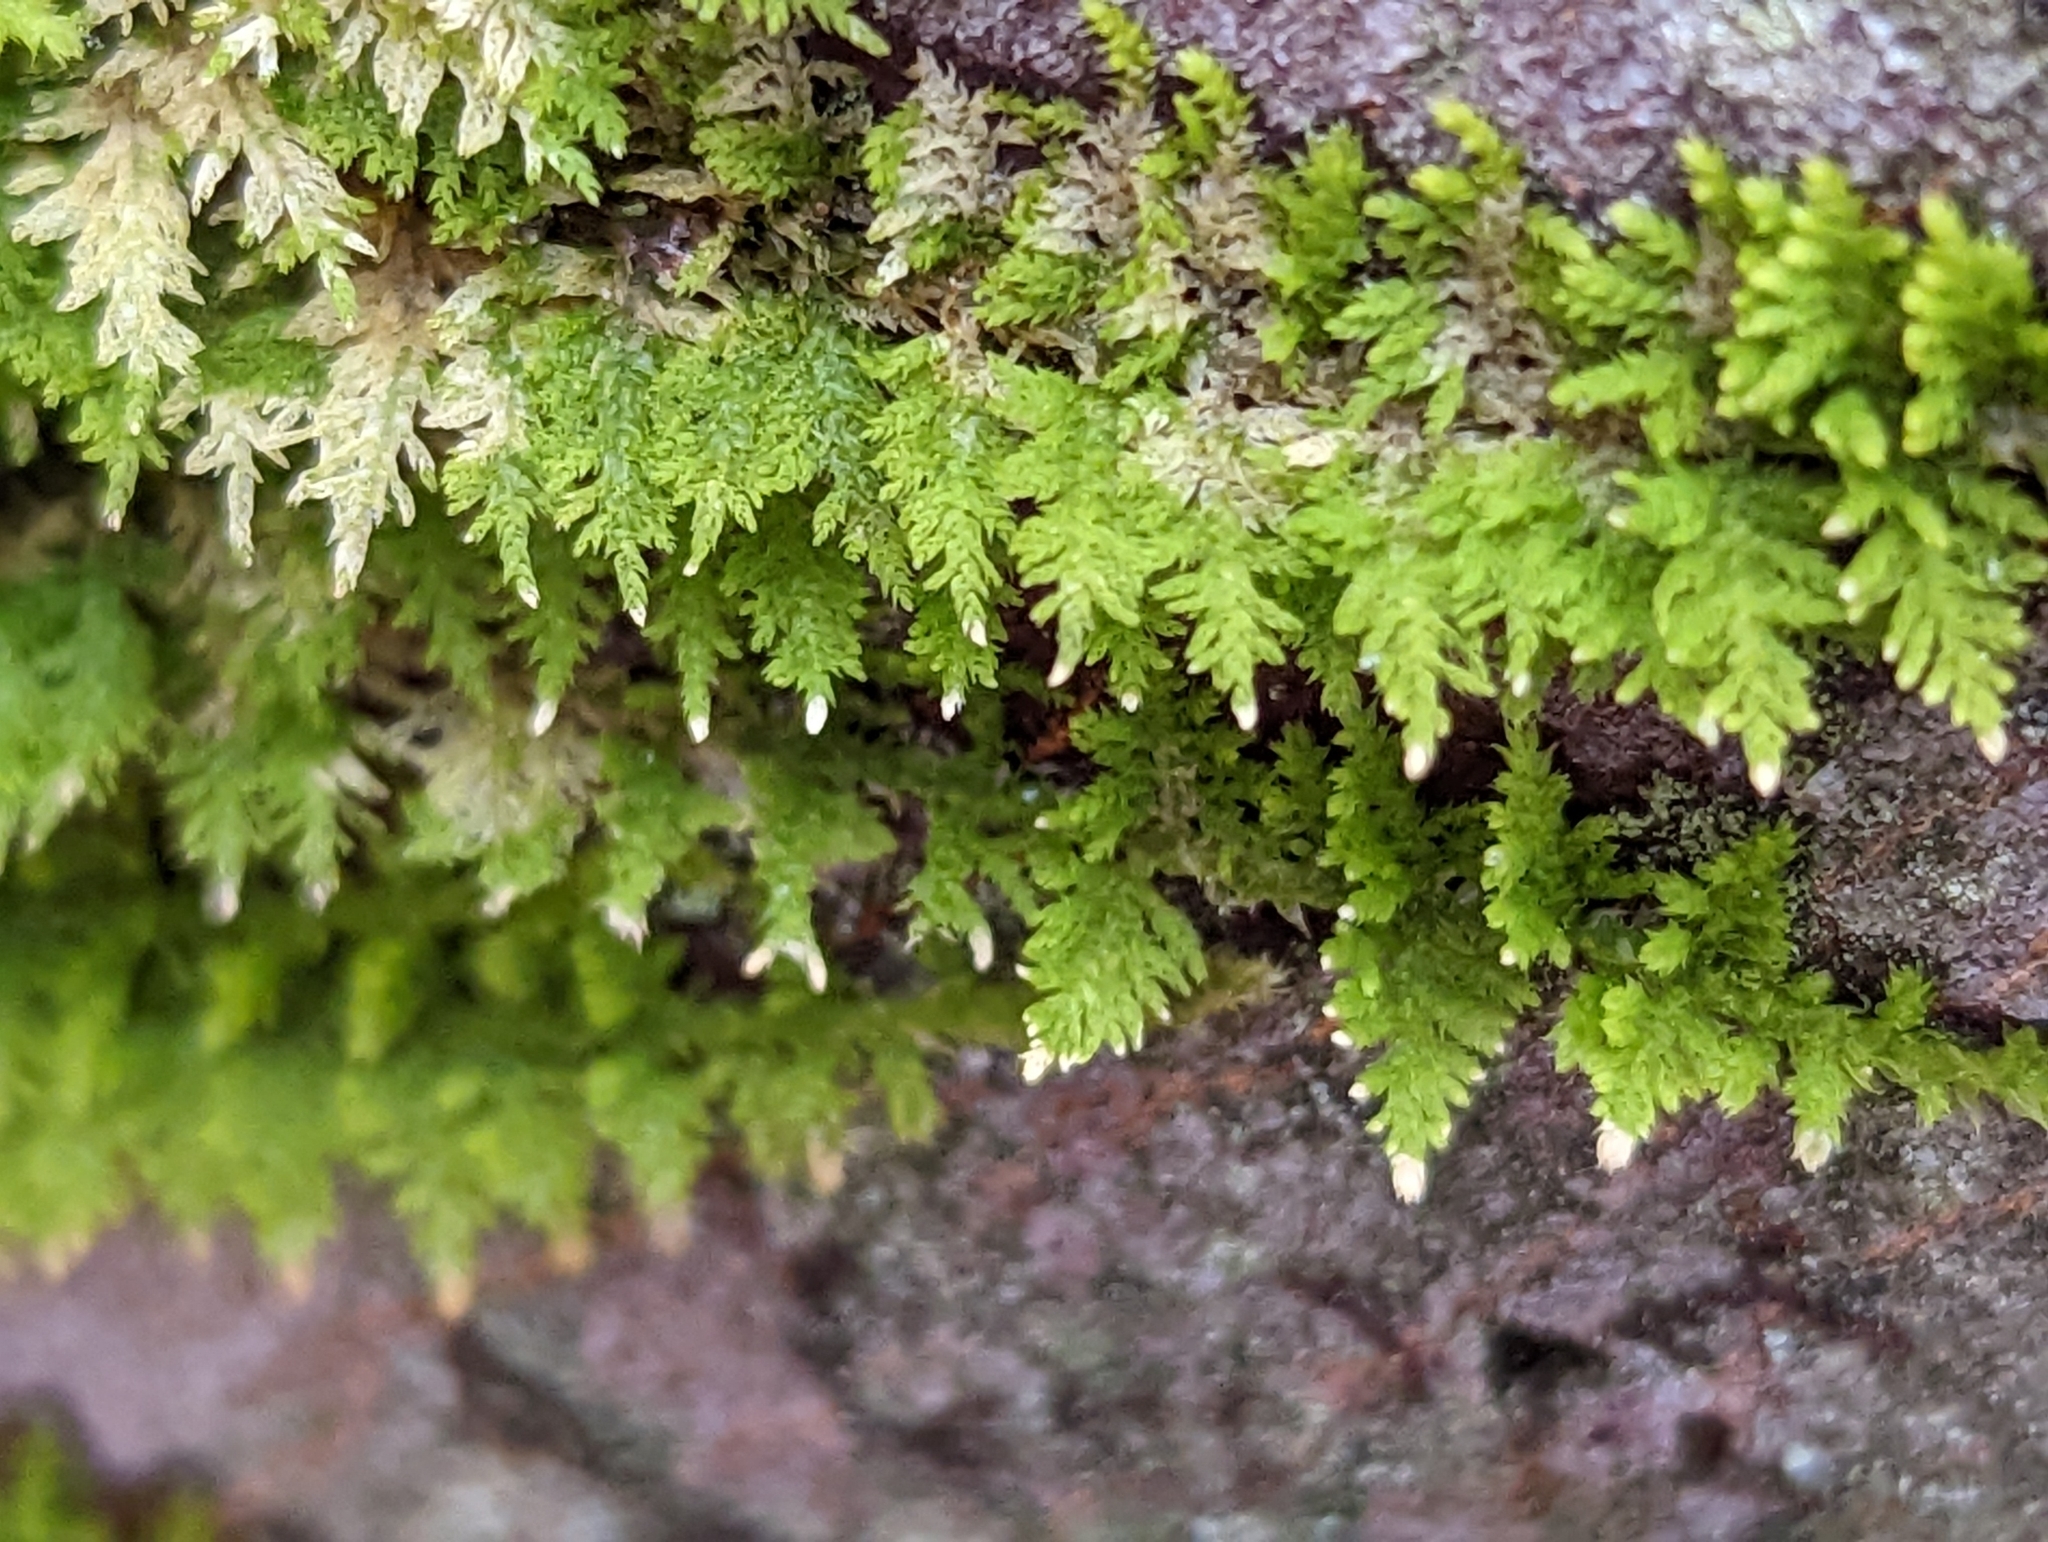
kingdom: Plantae
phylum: Bryophyta
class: Bryopsida
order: Hypnales
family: Thuidiaceae
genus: Thuidium
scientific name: Thuidium delicatulum
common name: Delicate fern moss
